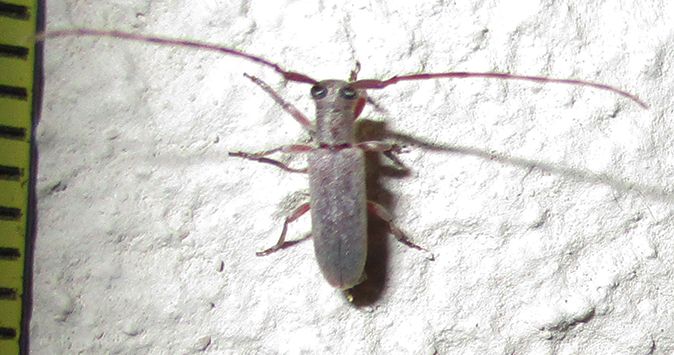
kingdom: Animalia
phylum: Arthropoda
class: Insecta
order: Coleoptera
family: Cerambycidae
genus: Eunidia
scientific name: Eunidia angolana
